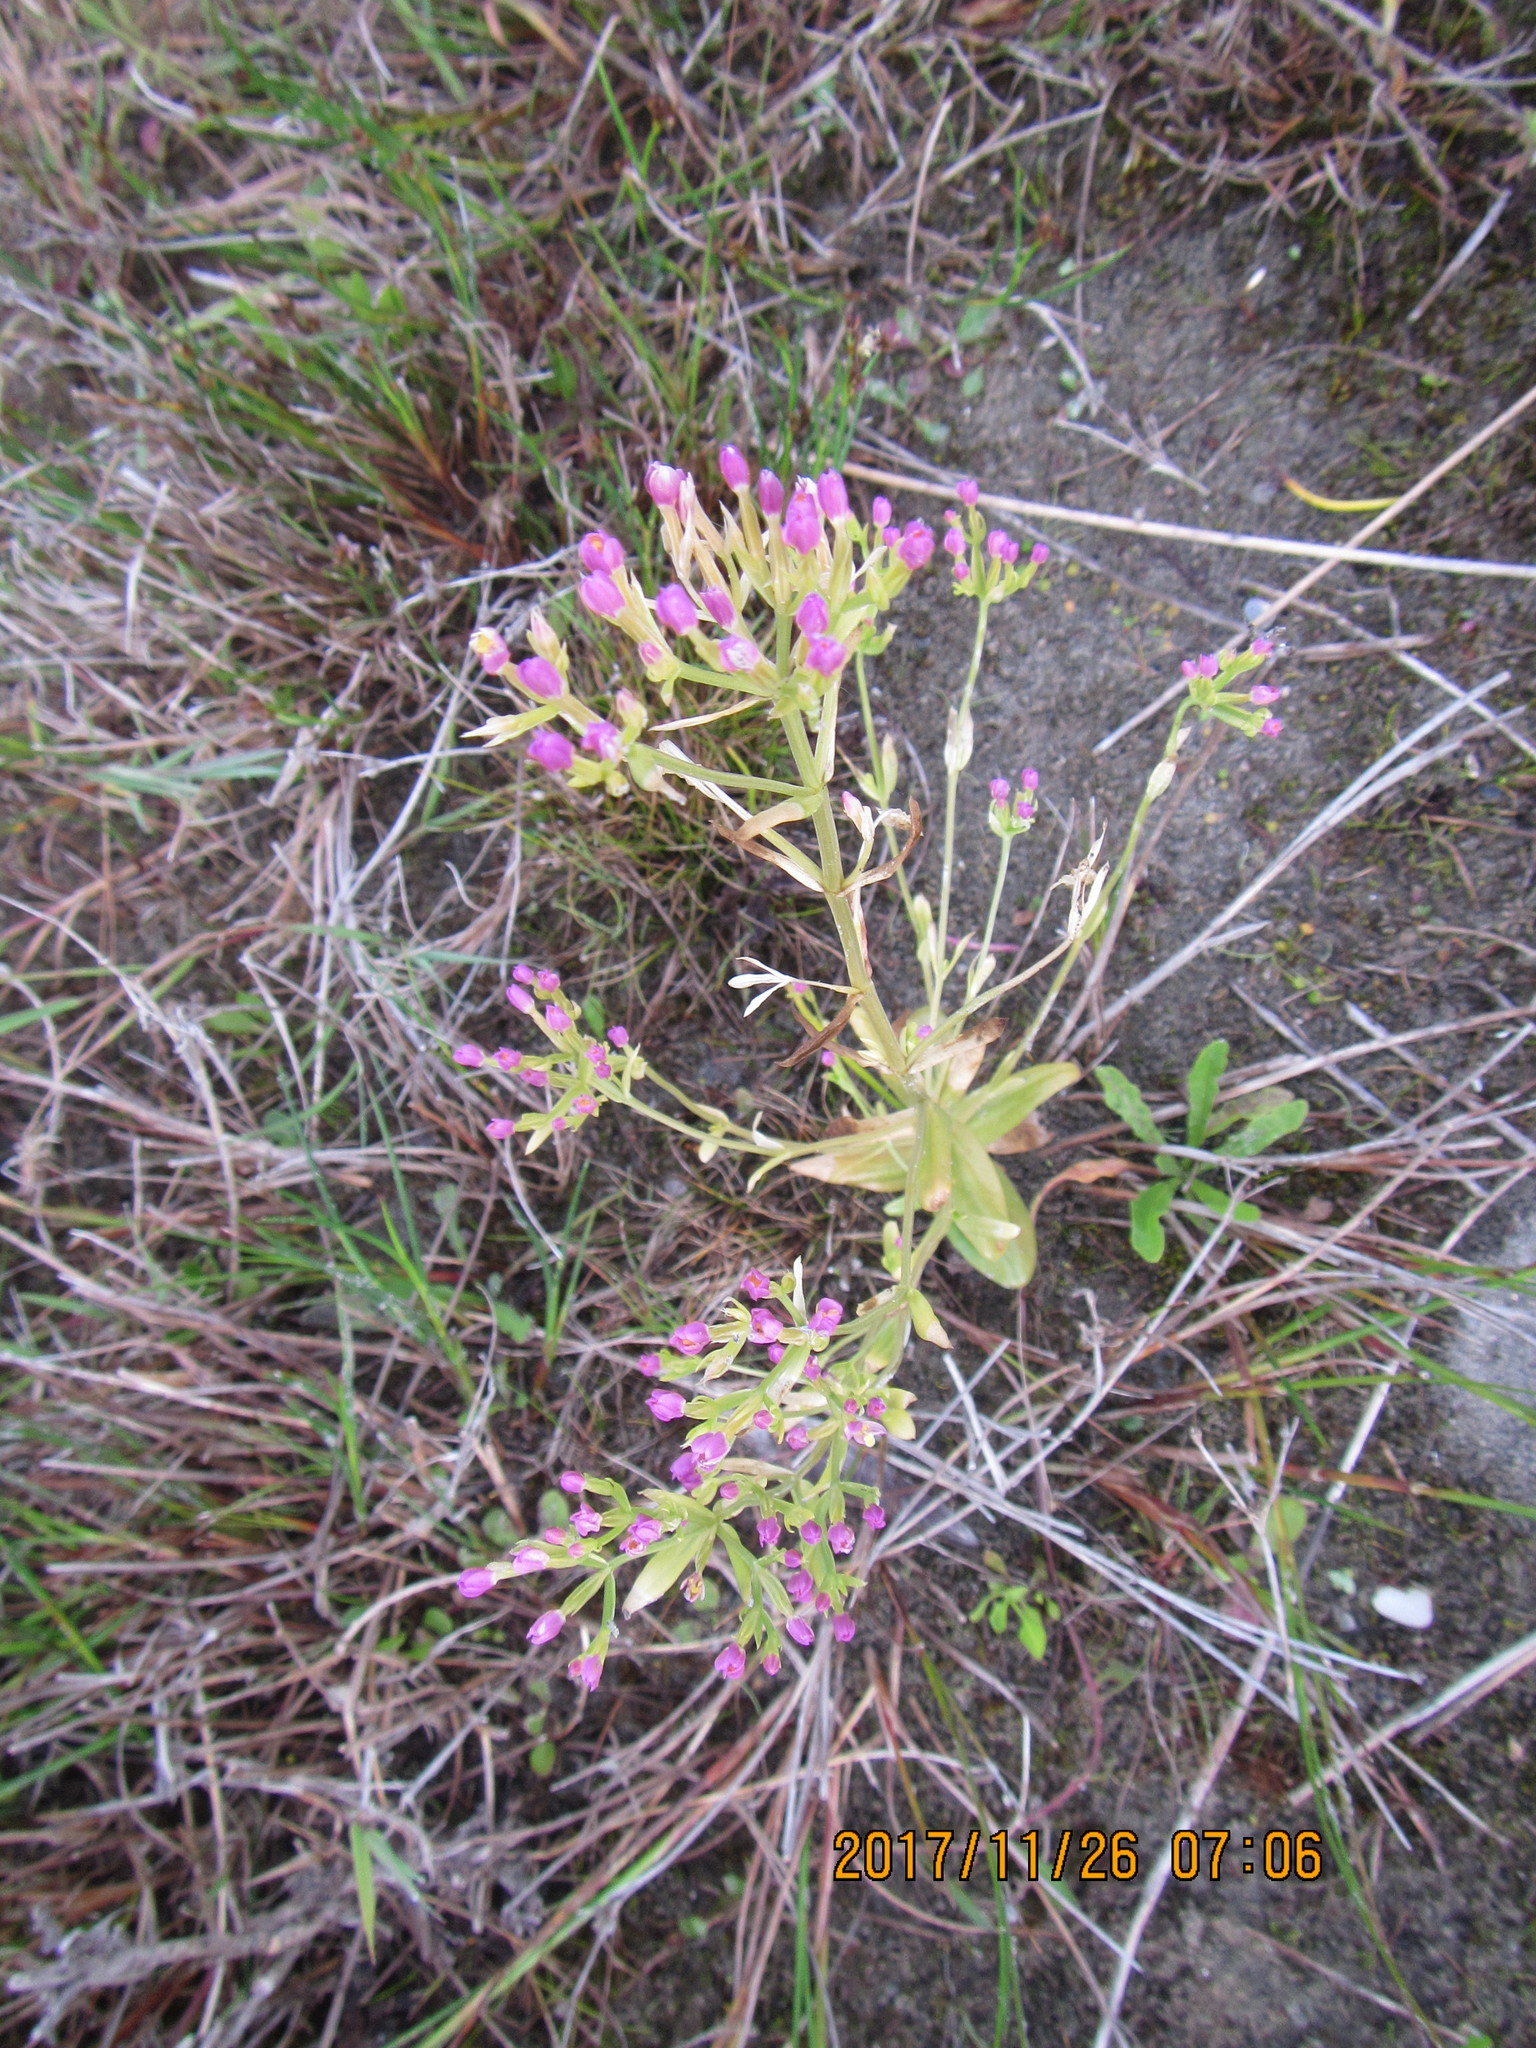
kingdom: Plantae
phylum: Tracheophyta
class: Magnoliopsida
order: Gentianales
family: Gentianaceae
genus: Centaurium
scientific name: Centaurium erythraea
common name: Common centaury
